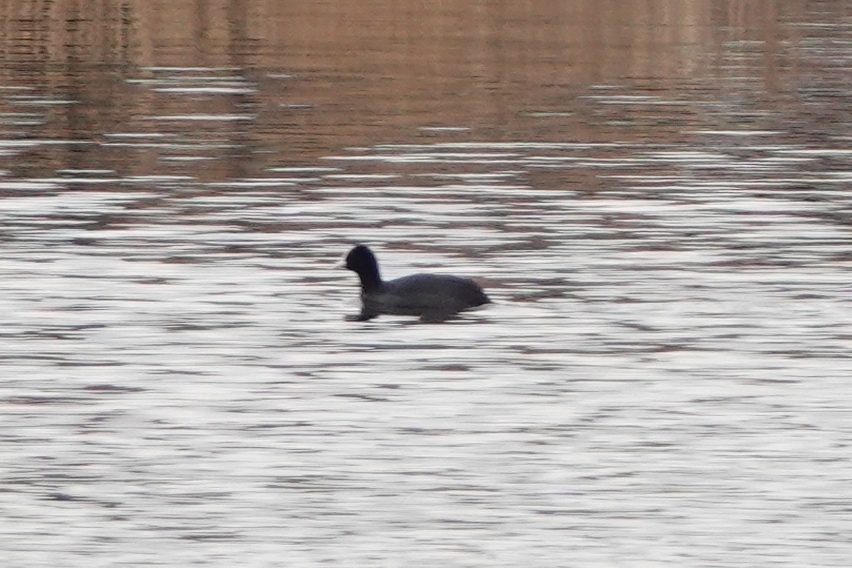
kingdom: Animalia
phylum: Chordata
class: Aves
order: Gruiformes
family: Rallidae
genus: Fulica
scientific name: Fulica atra
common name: Eurasian coot
